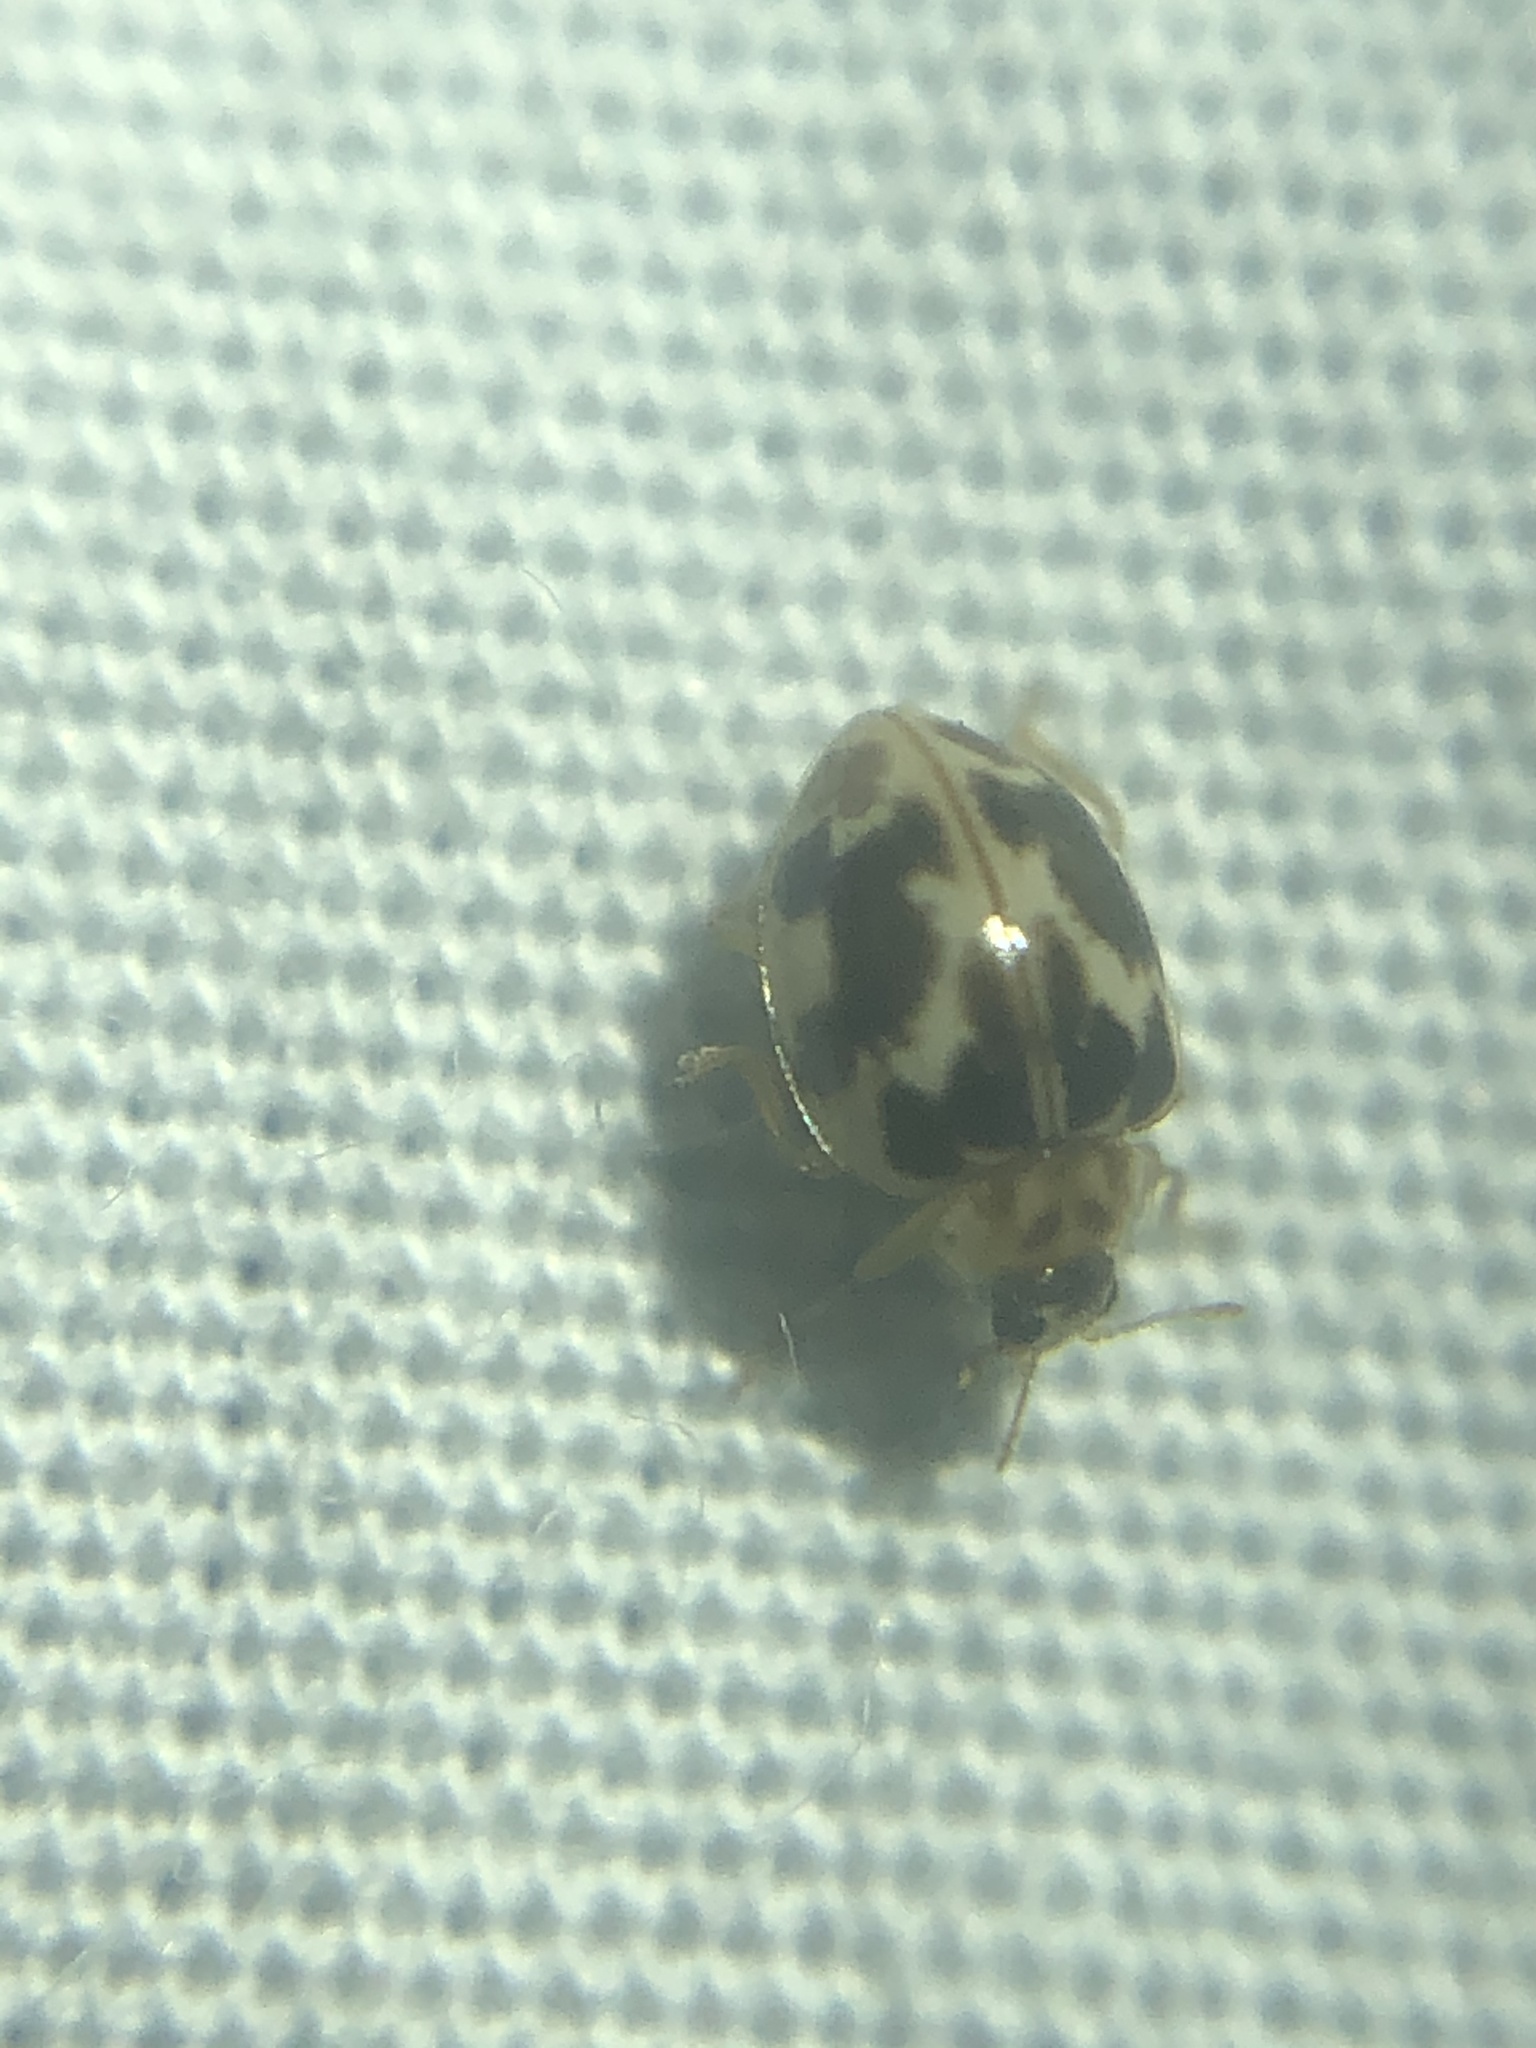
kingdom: Animalia
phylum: Arthropoda
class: Insecta
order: Coleoptera
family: Coccinellidae
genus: Psyllobora
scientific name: Psyllobora vigintimaculata
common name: Ladybird beetle
